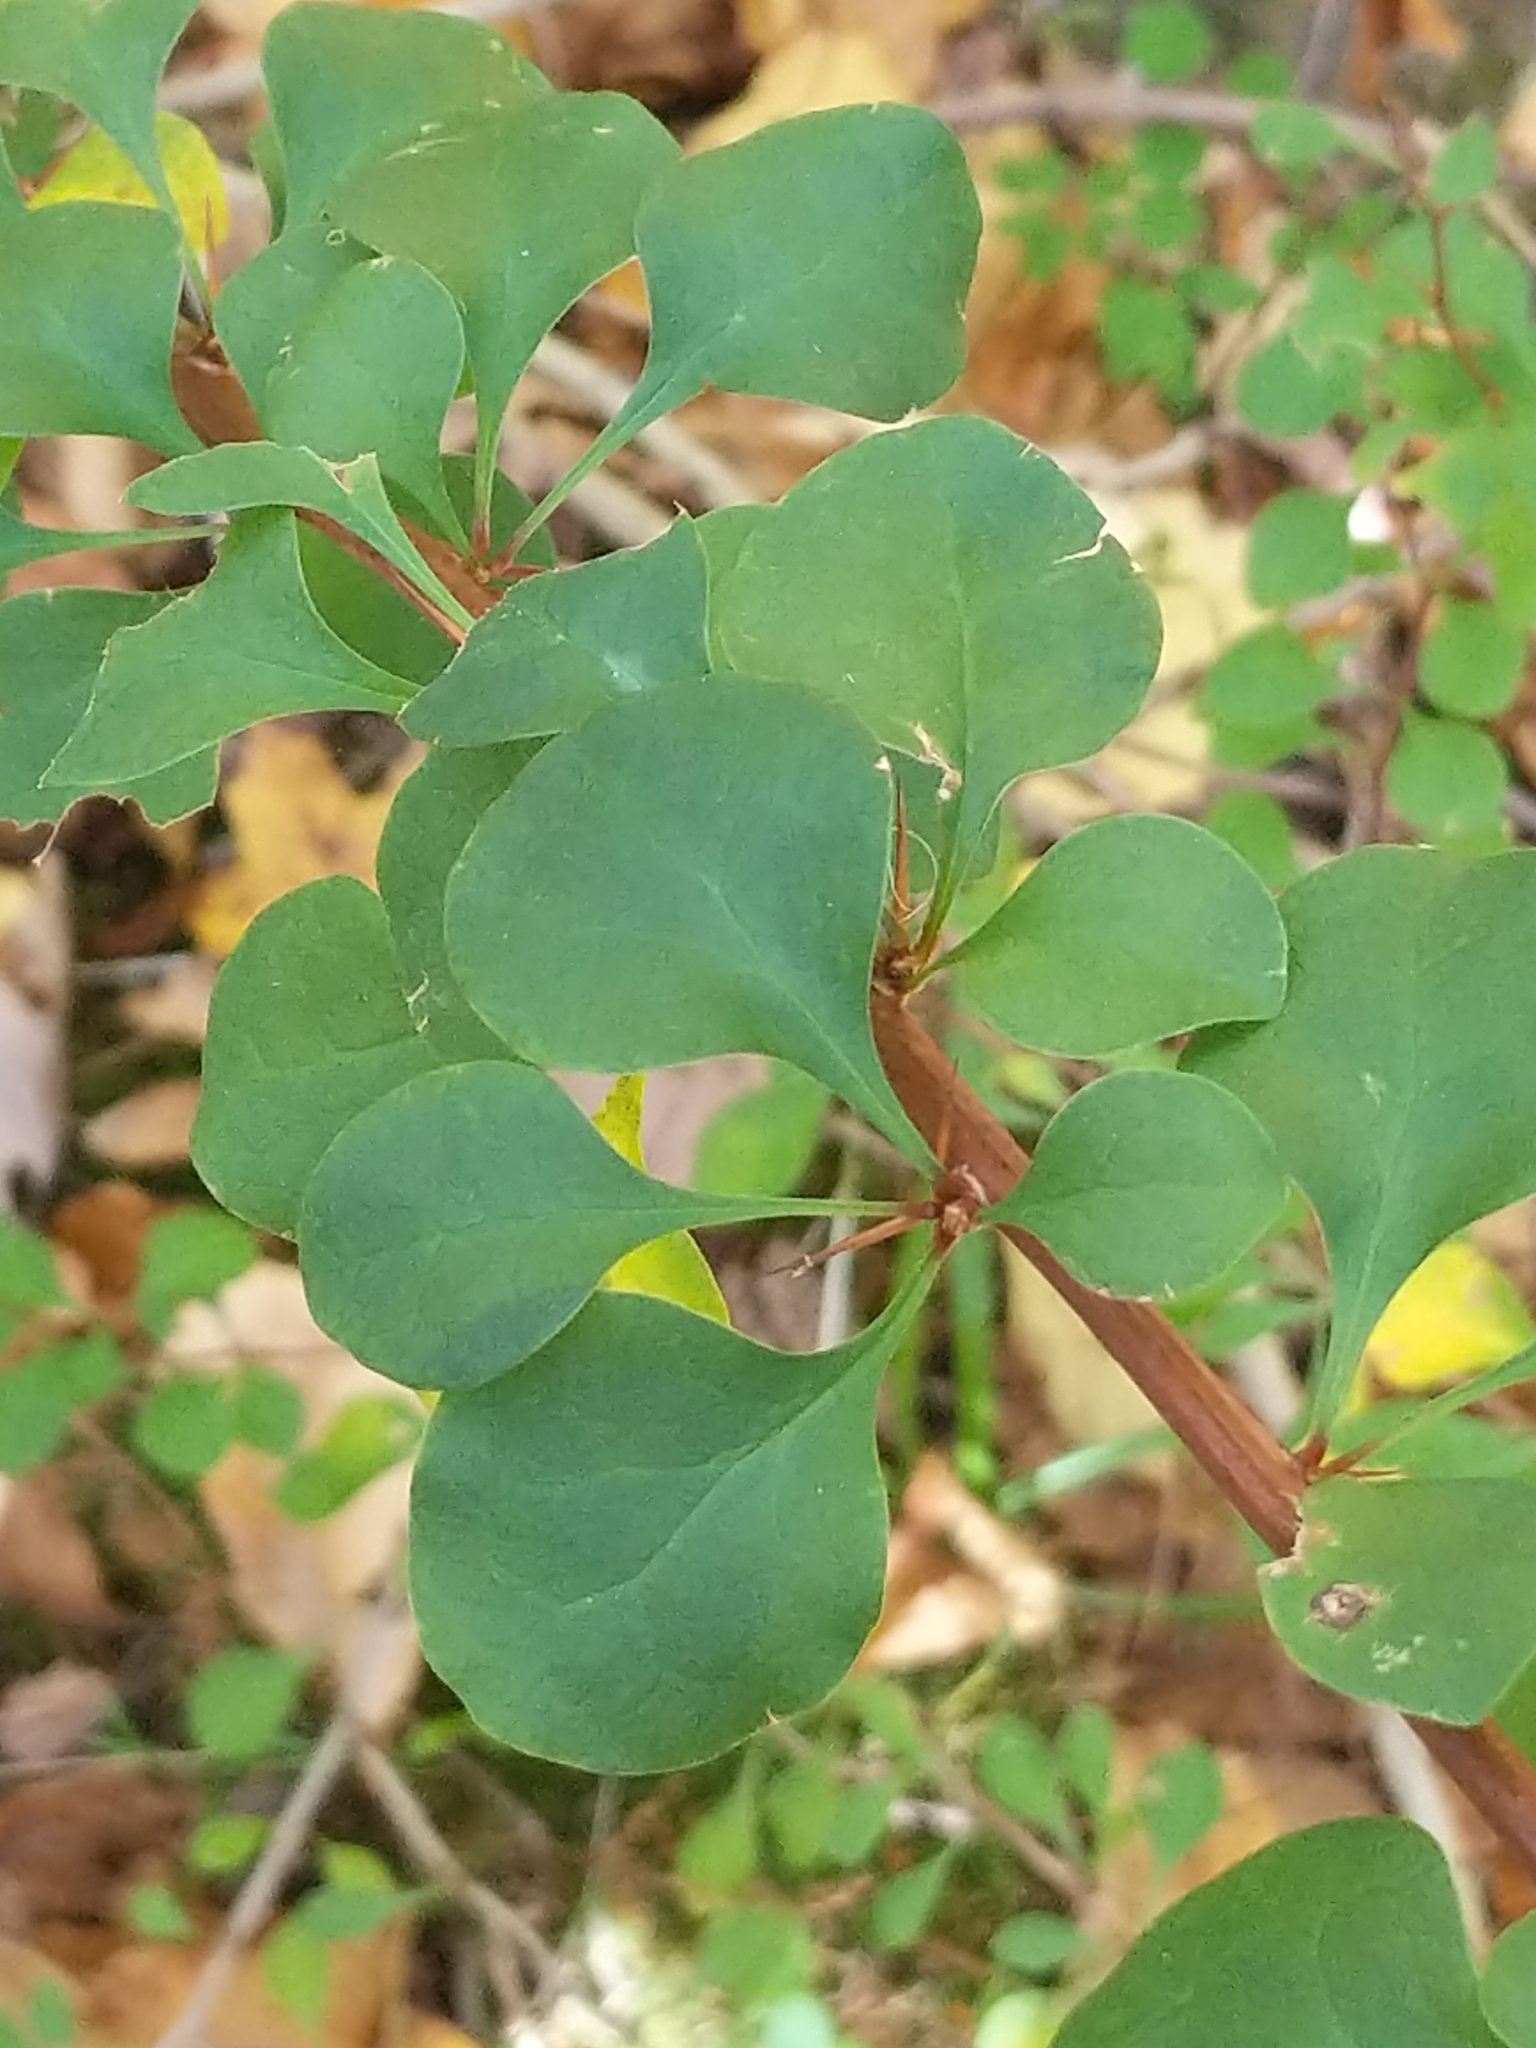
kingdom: Plantae
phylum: Tracheophyta
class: Magnoliopsida
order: Ranunculales
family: Berberidaceae
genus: Berberis
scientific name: Berberis thunbergii
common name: Japanese barberry
